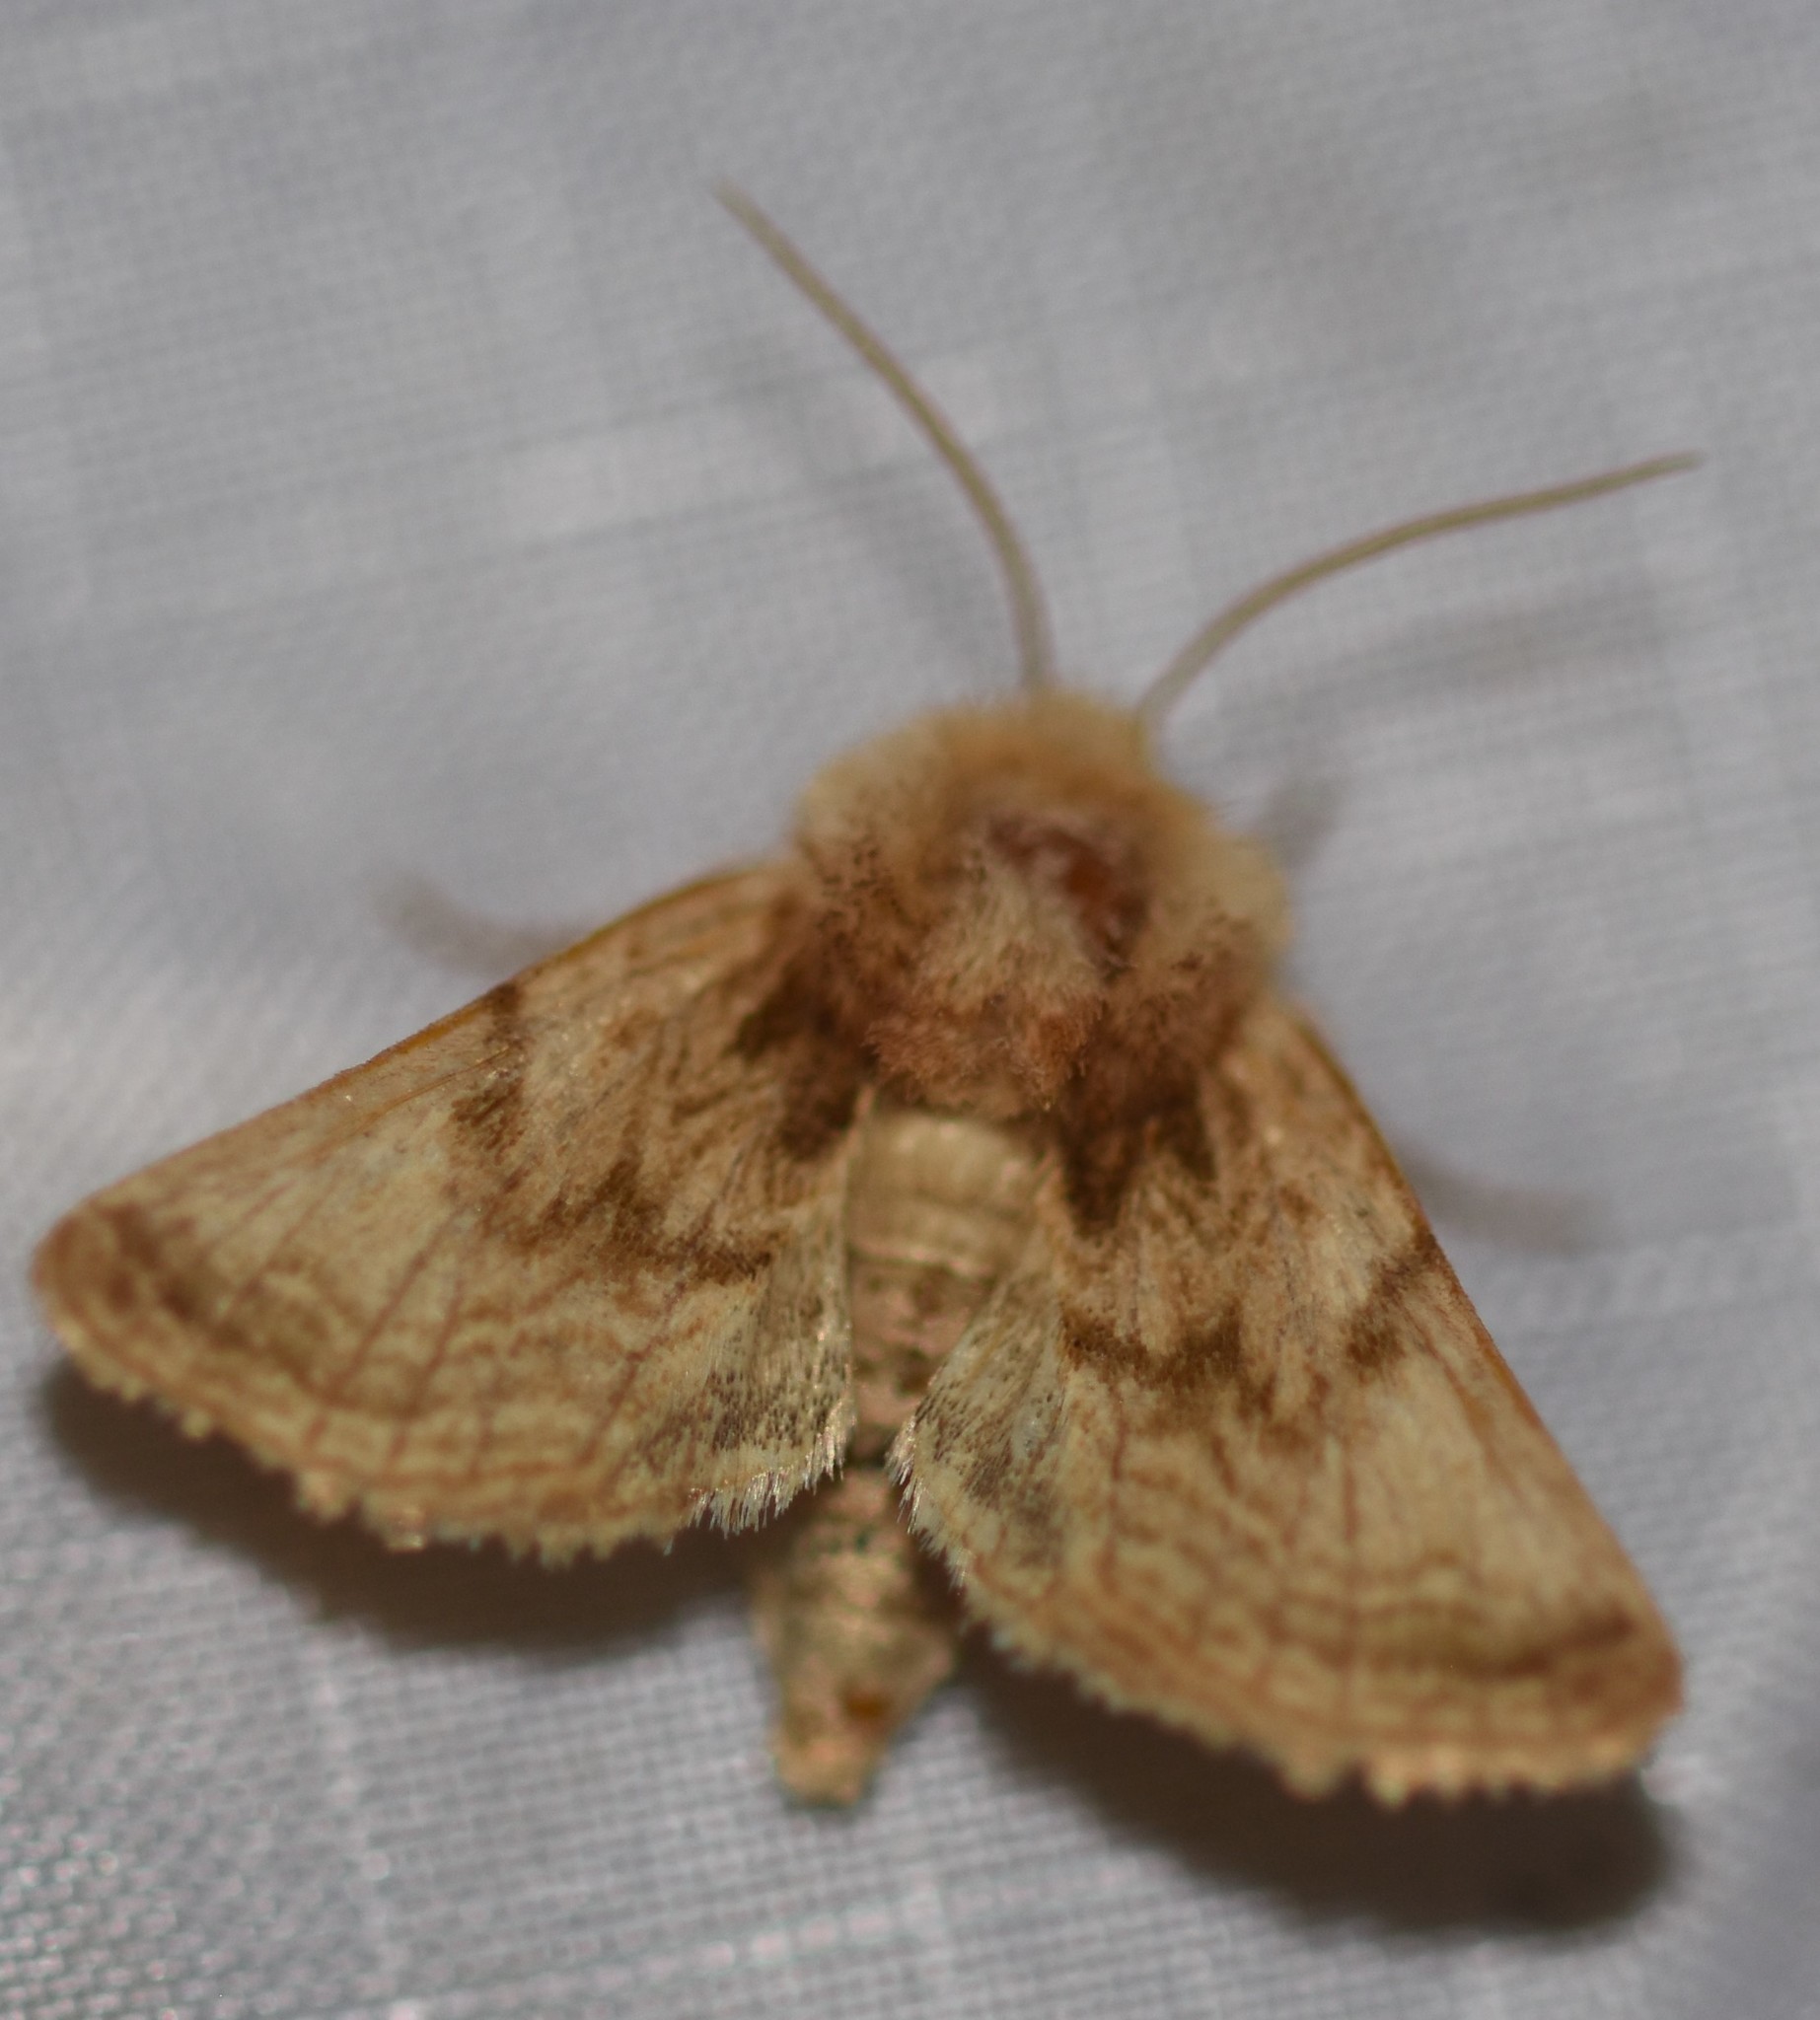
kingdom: Animalia
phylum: Arthropoda
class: Insecta
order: Lepidoptera
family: Noctuidae
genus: Nocloa
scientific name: Nocloa rivulosa
